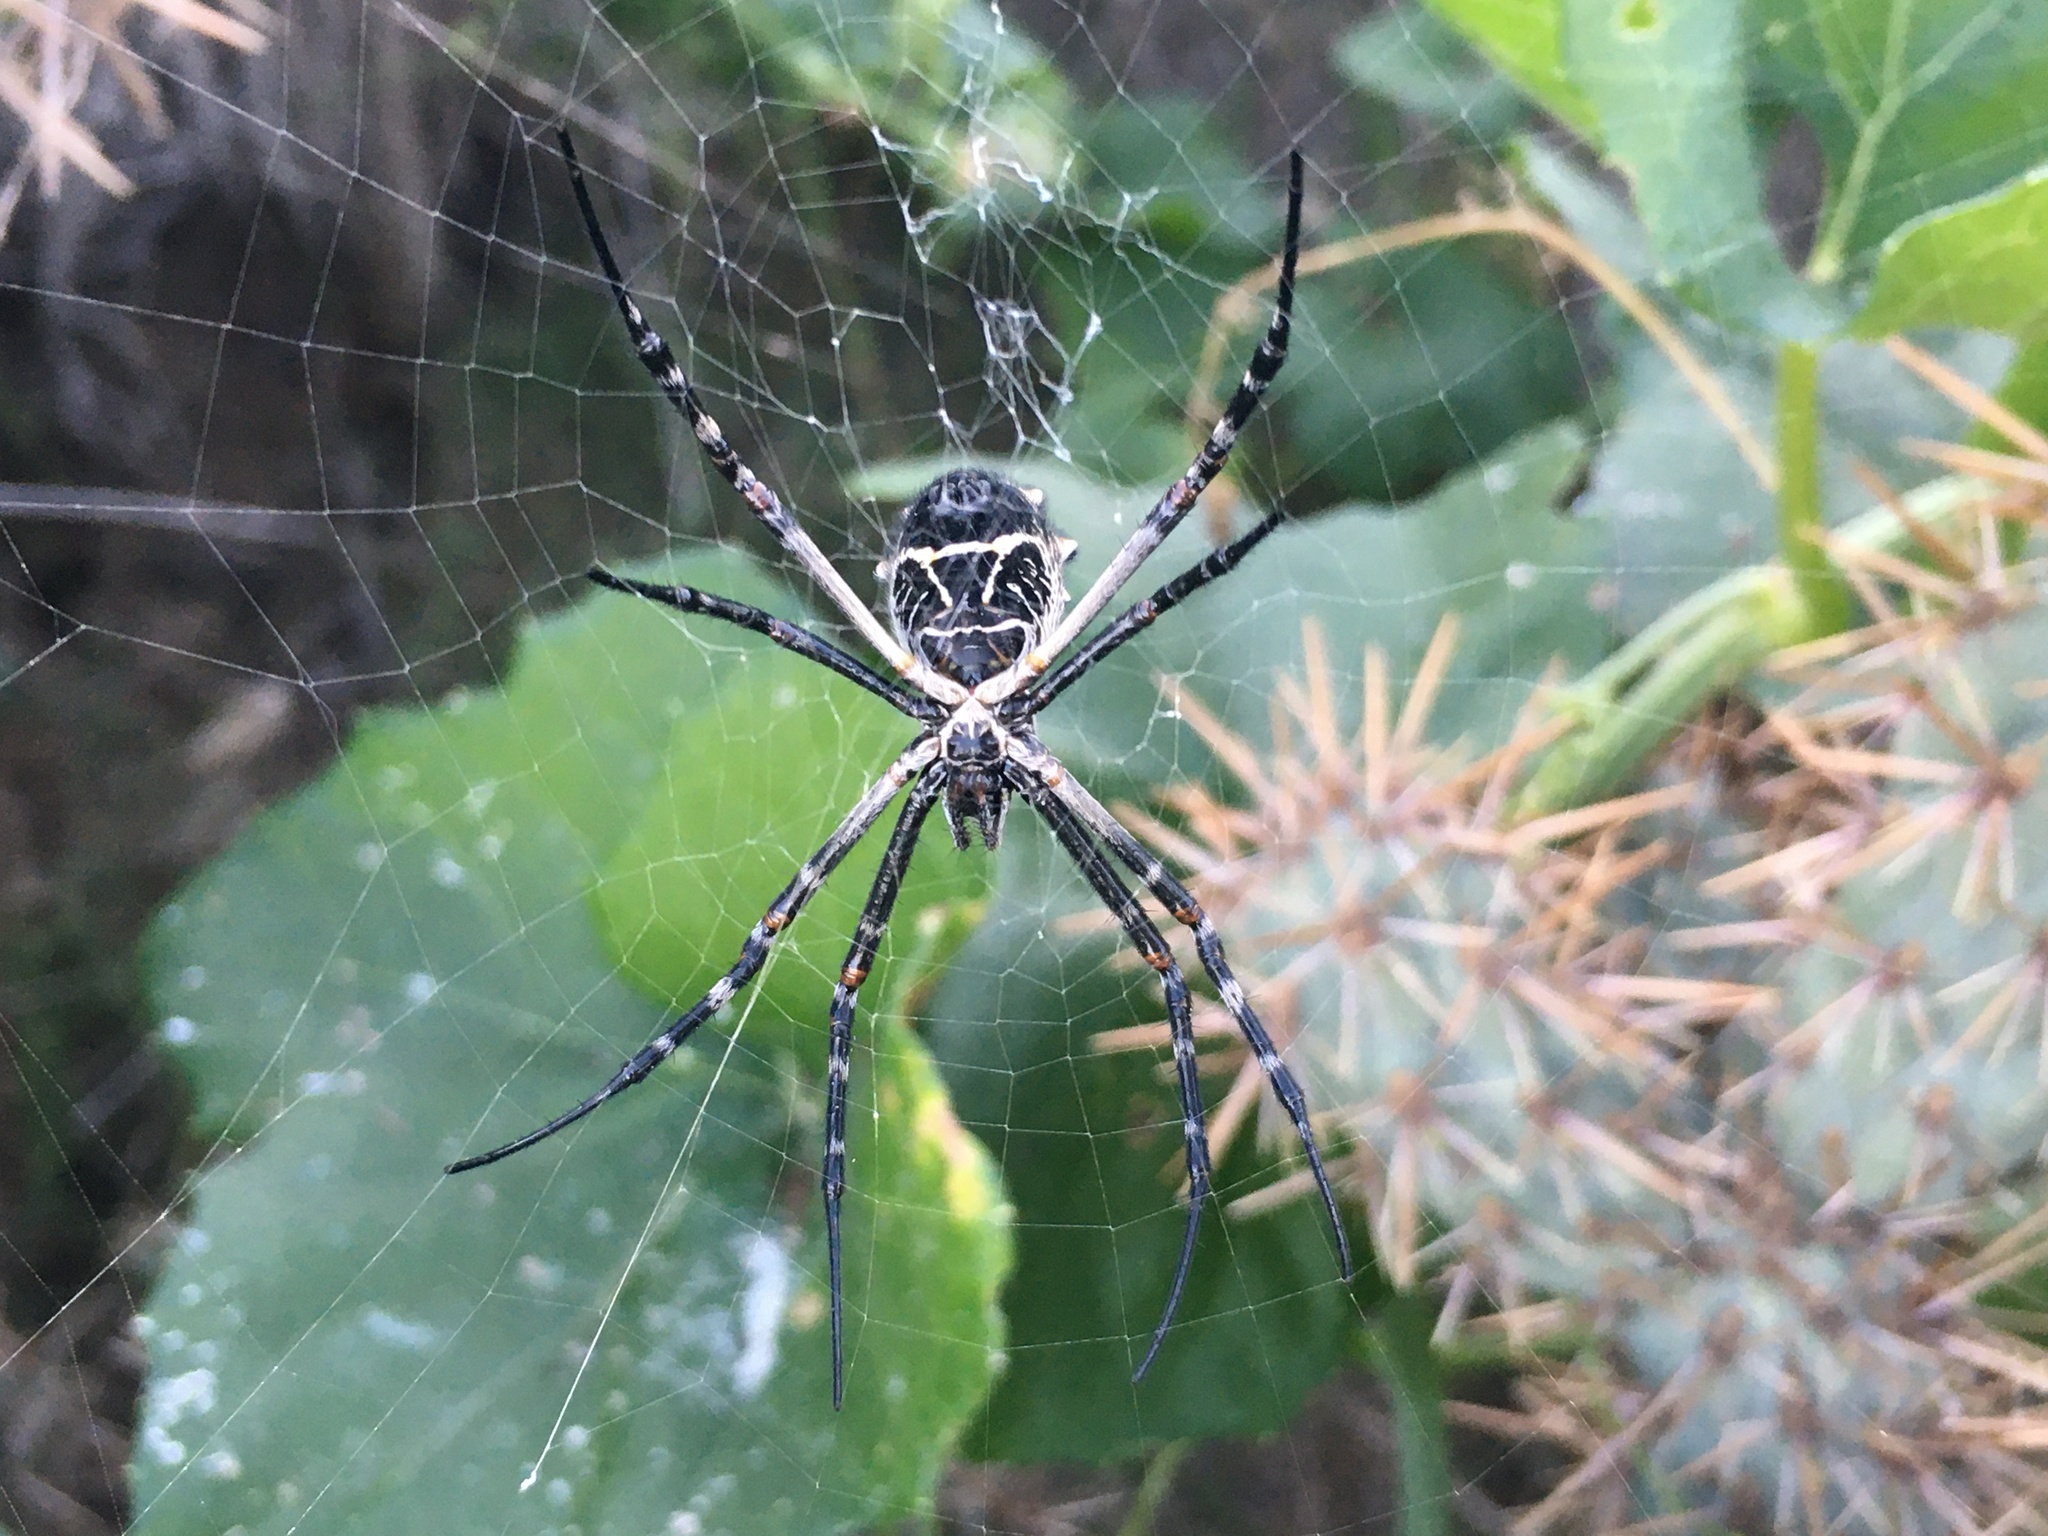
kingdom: Animalia
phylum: Arthropoda
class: Arachnida
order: Araneae
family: Araneidae
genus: Argiope
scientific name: Argiope argentata
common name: Orb weavers
